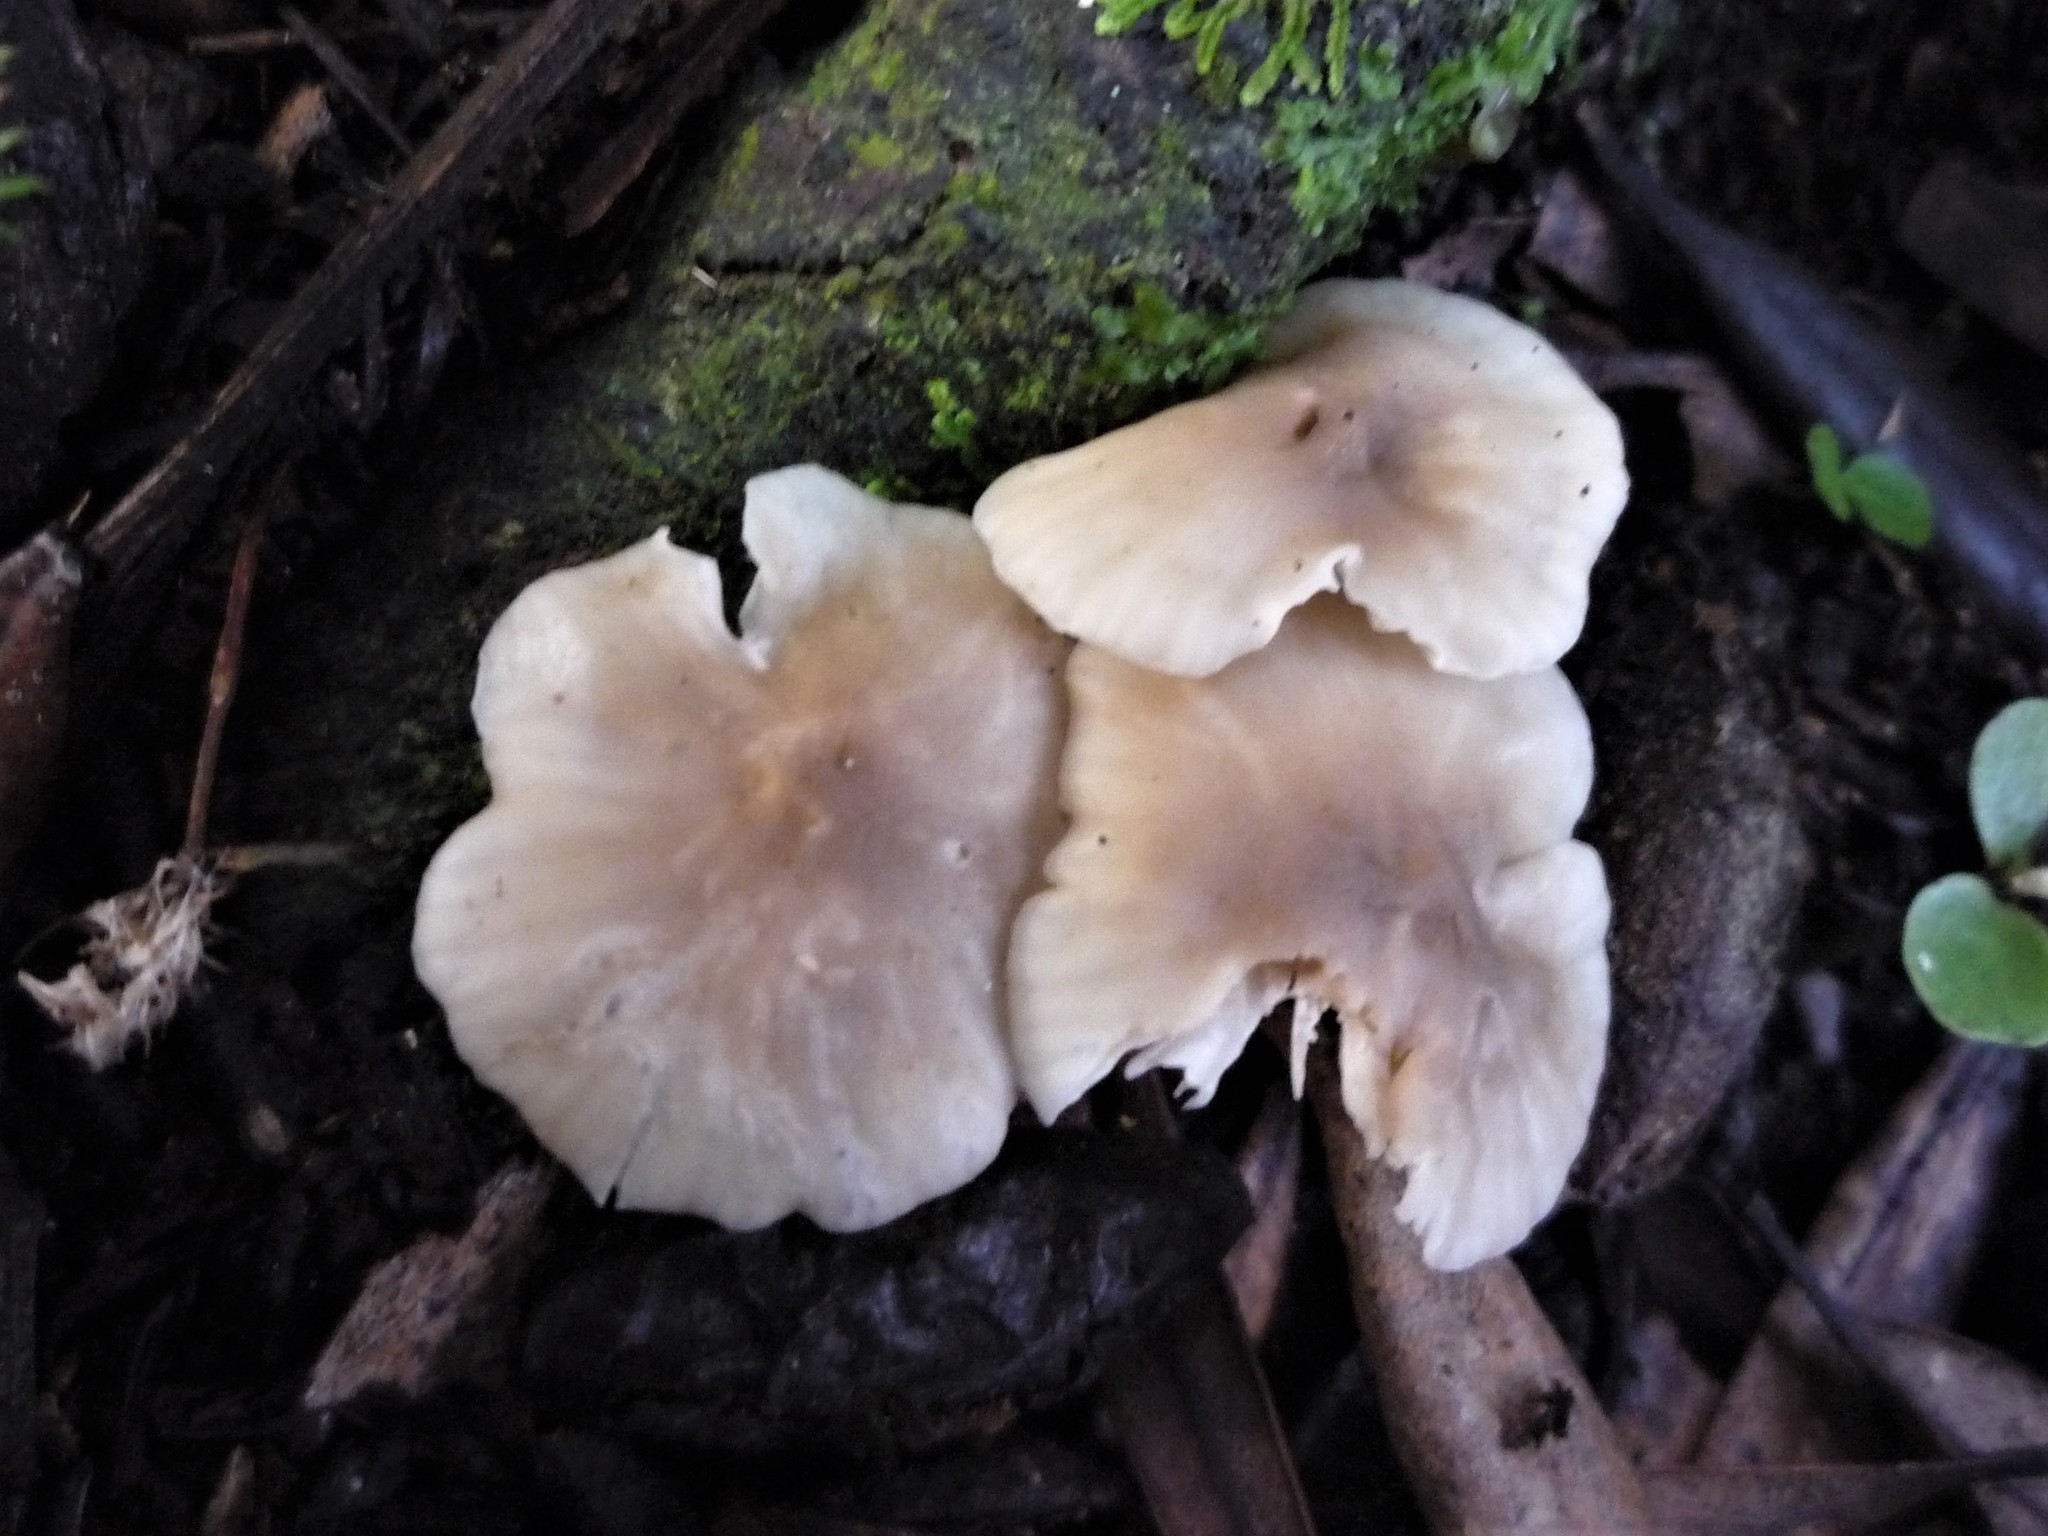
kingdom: Fungi
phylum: Basidiomycota
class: Agaricomycetes
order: Agaricales
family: Hygrophoraceae
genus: Cuphophyllus
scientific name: Cuphophyllus
